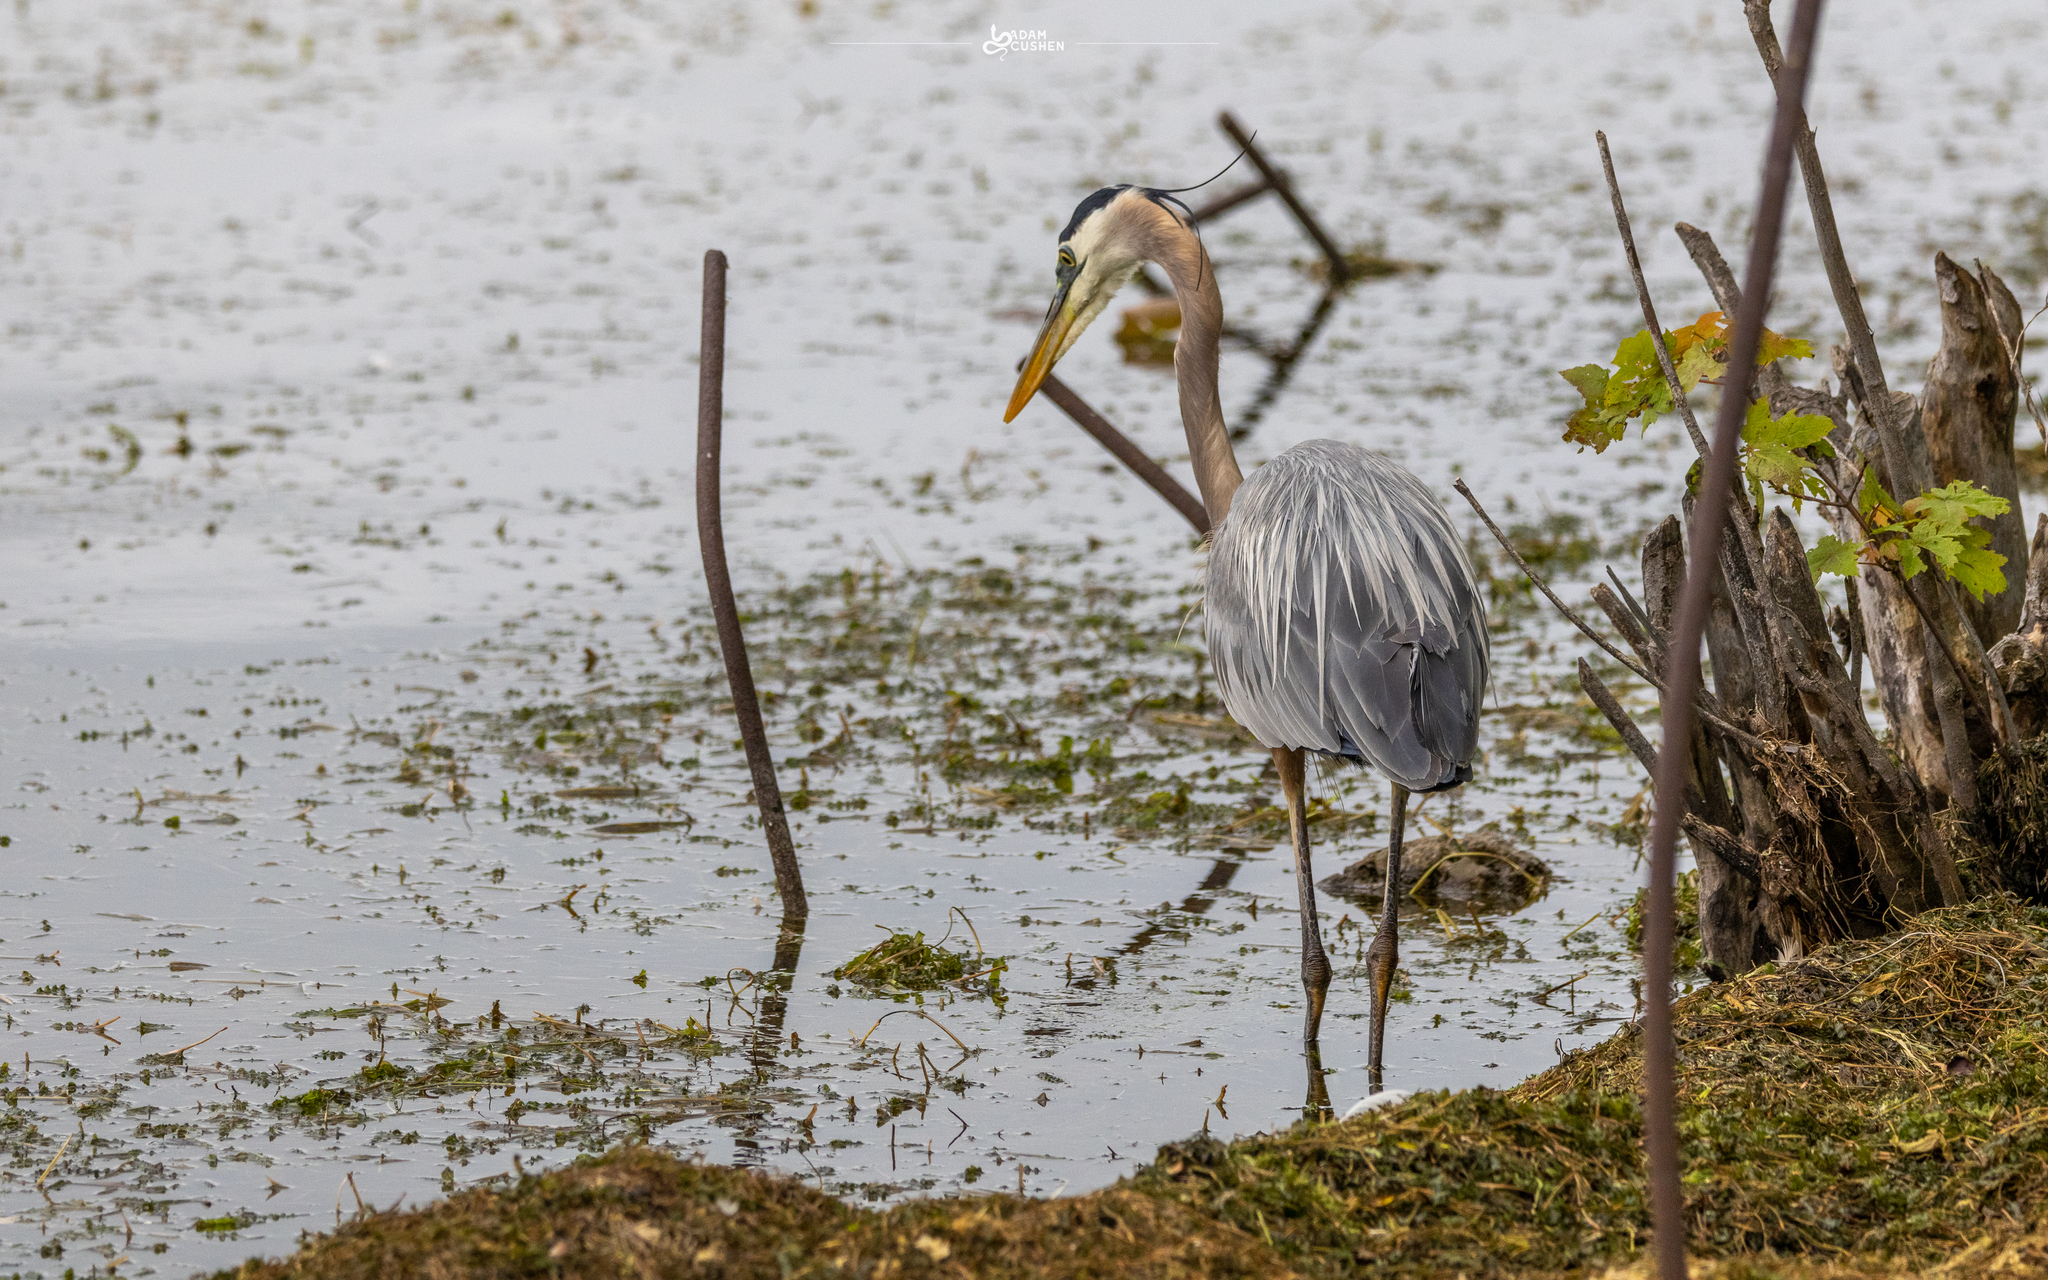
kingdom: Animalia
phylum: Chordata
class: Aves
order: Pelecaniformes
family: Ardeidae
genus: Ardea
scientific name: Ardea herodias
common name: Great blue heron
